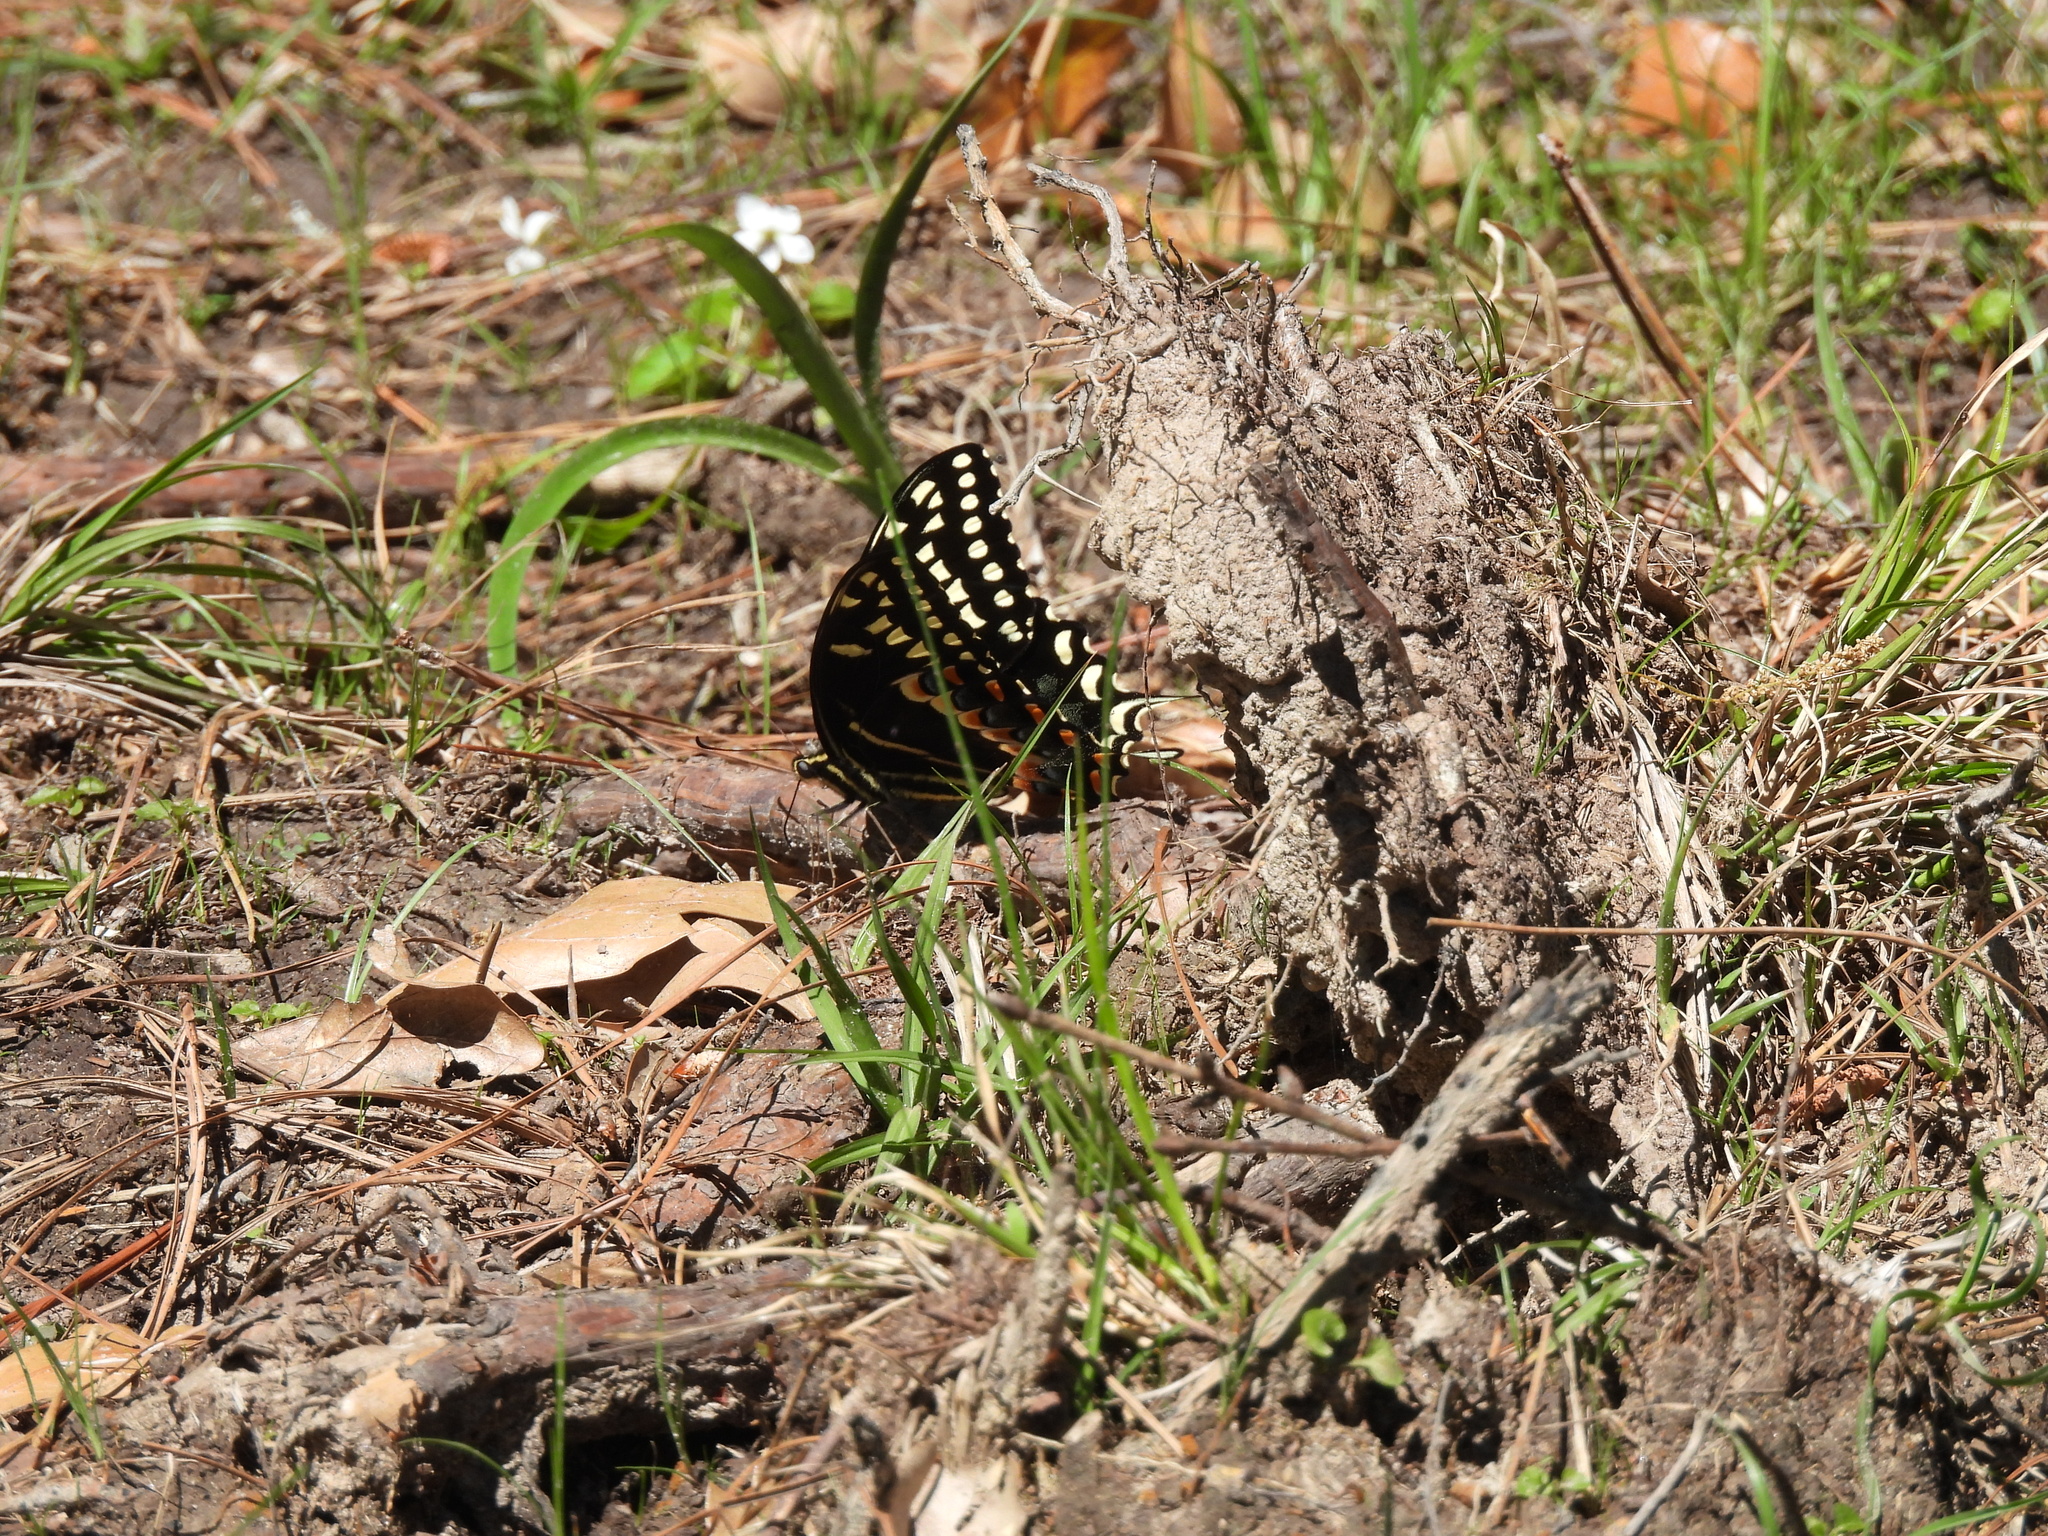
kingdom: Animalia
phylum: Arthropoda
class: Insecta
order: Lepidoptera
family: Papilionidae
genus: Papilio
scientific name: Papilio palamedes
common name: Palamedes swallowtail
